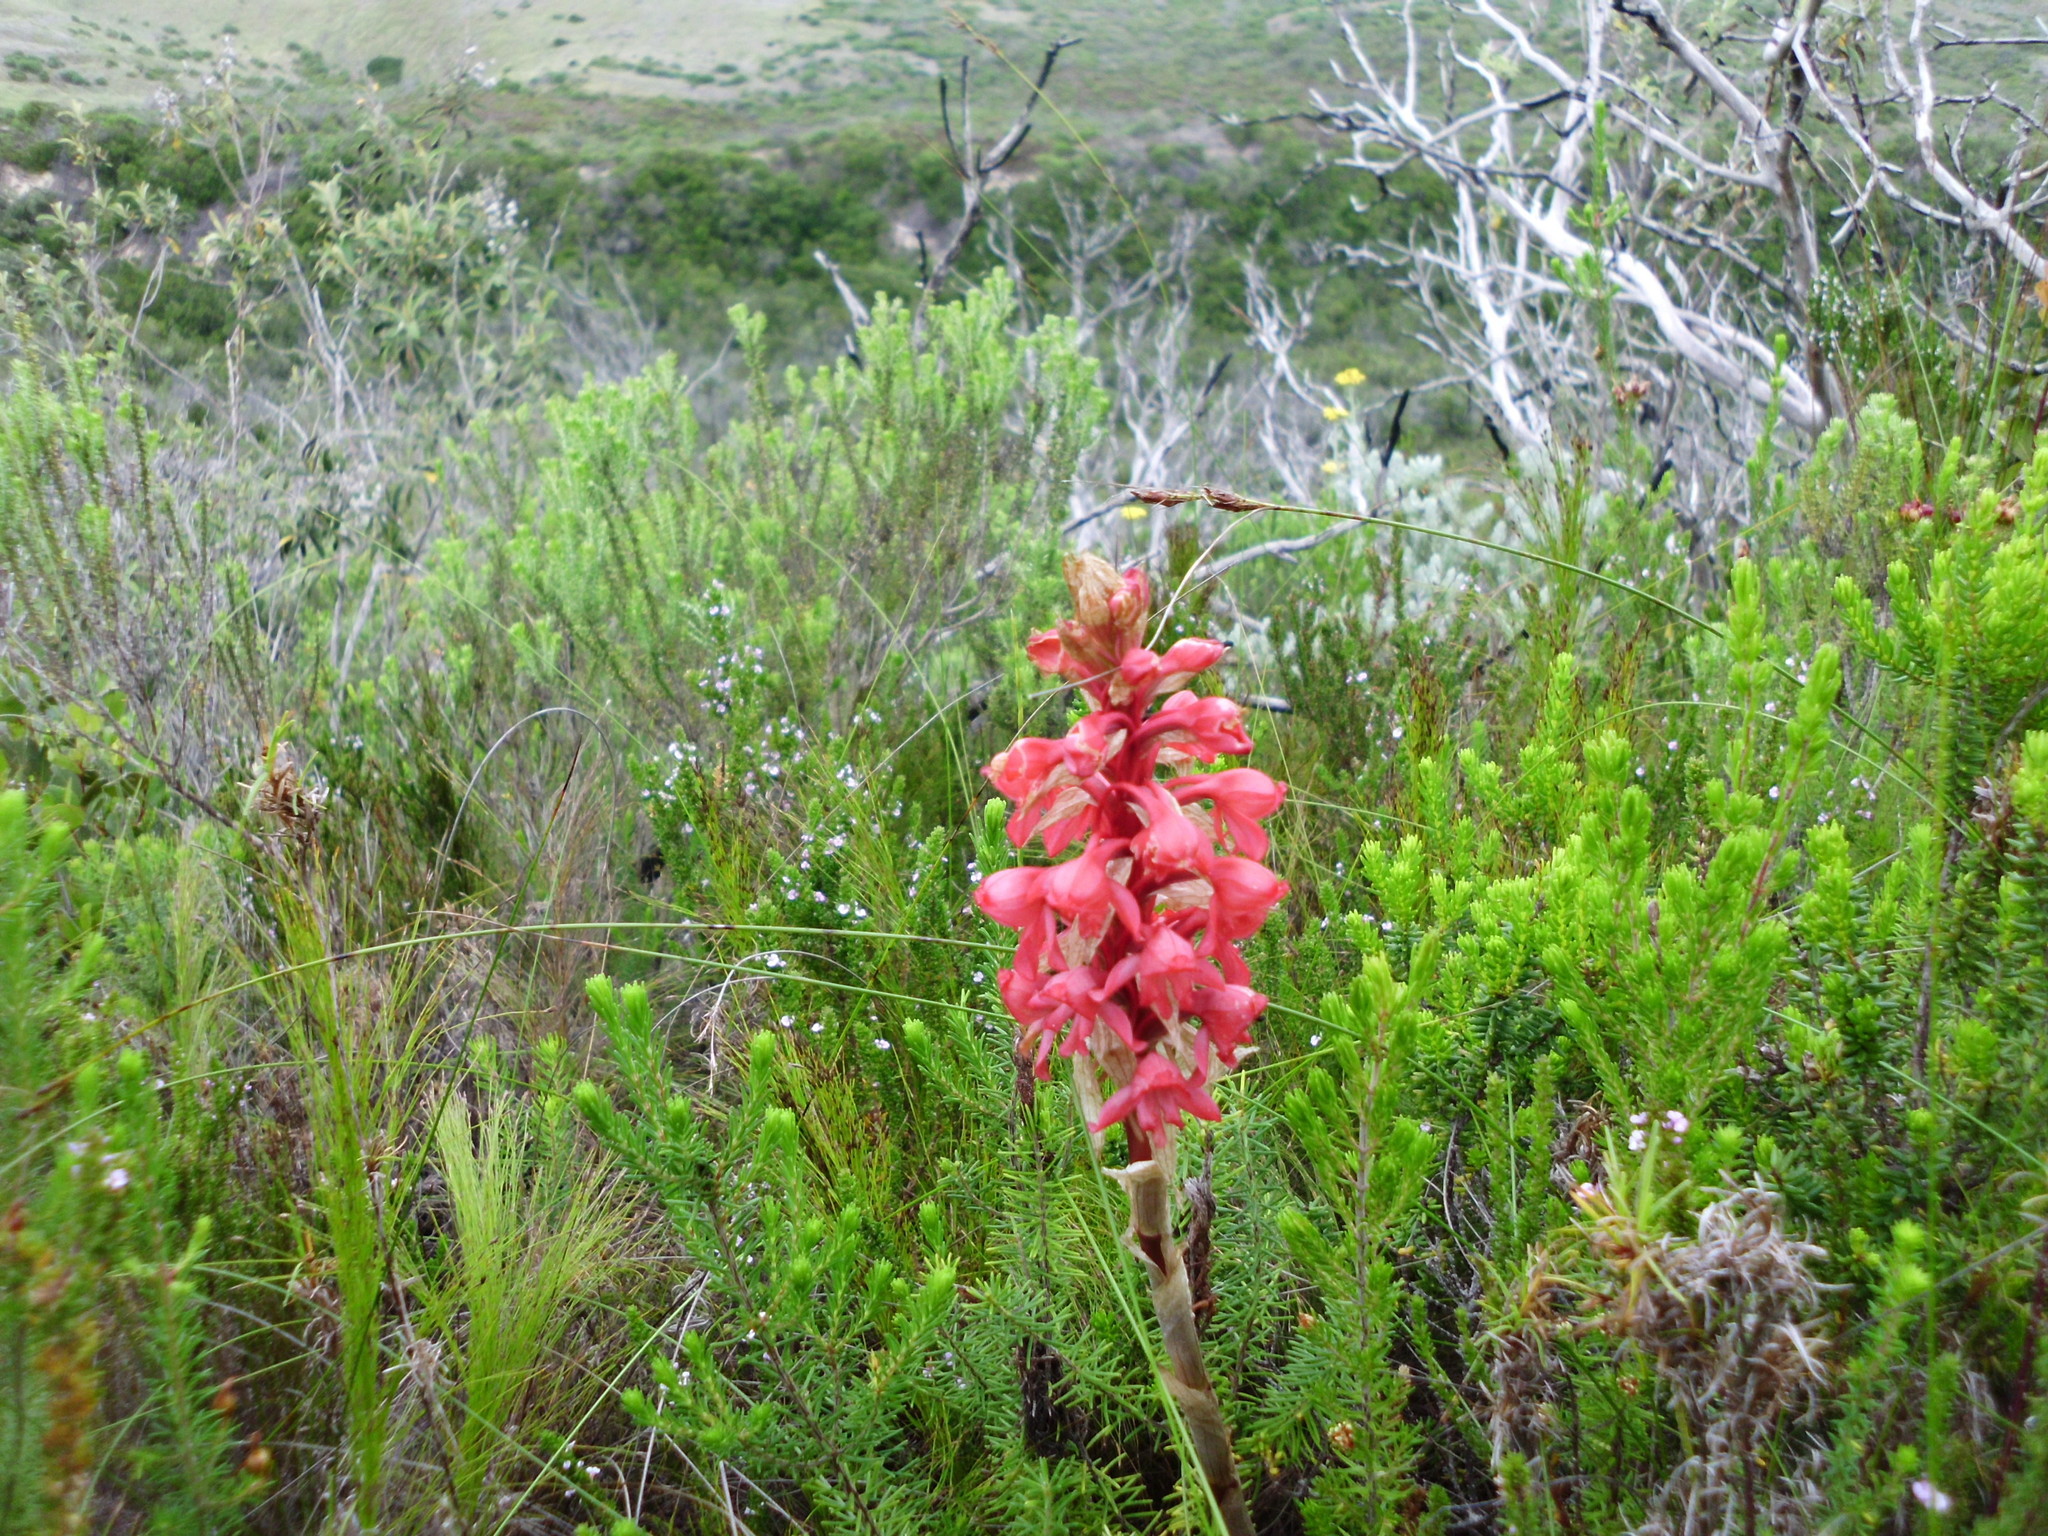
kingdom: Plantae
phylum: Tracheophyta
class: Liliopsida
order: Asparagales
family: Orchidaceae
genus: Satyrium
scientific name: Satyrium princeps
